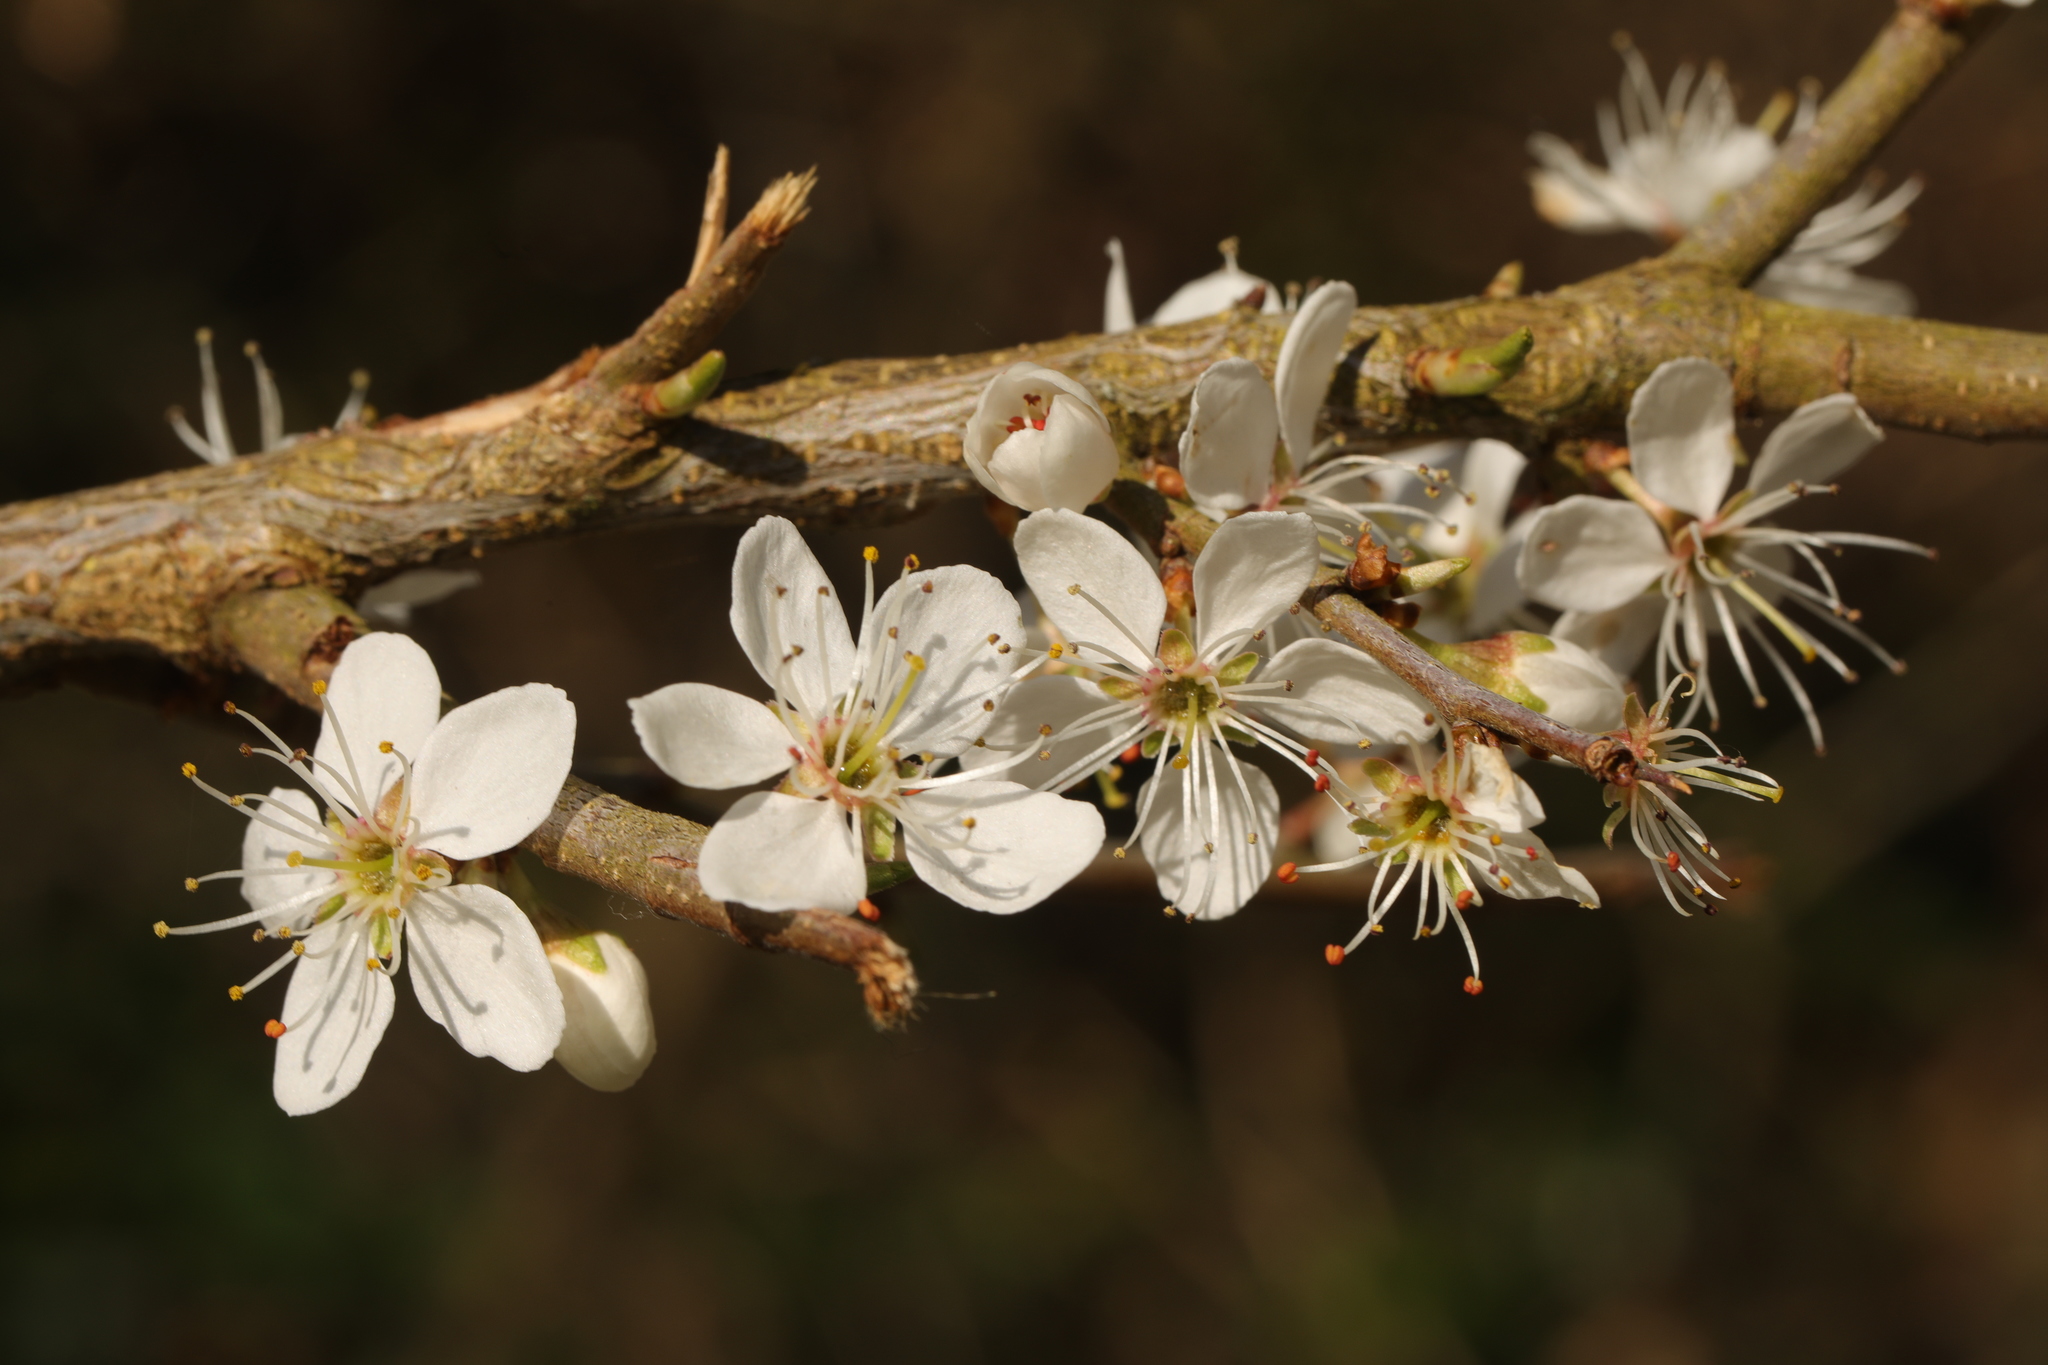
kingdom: Plantae
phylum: Tracheophyta
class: Magnoliopsida
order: Rosales
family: Rosaceae
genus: Prunus
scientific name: Prunus spinosa
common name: Blackthorn
